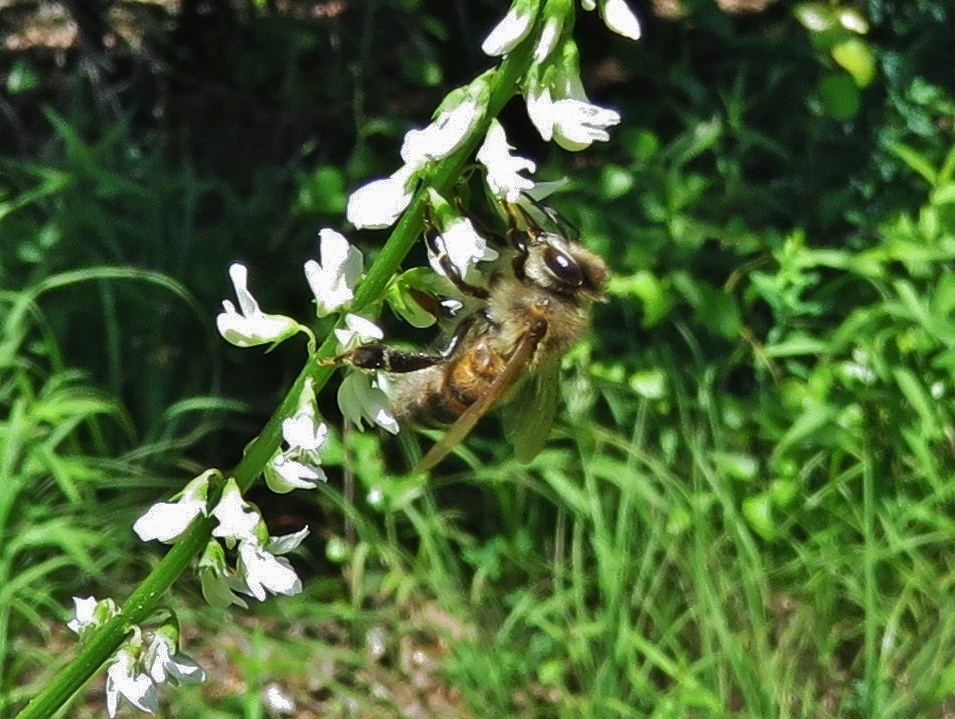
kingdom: Animalia
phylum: Arthropoda
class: Insecta
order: Hymenoptera
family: Apidae
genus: Apis
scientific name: Apis mellifera
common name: Honey bee
